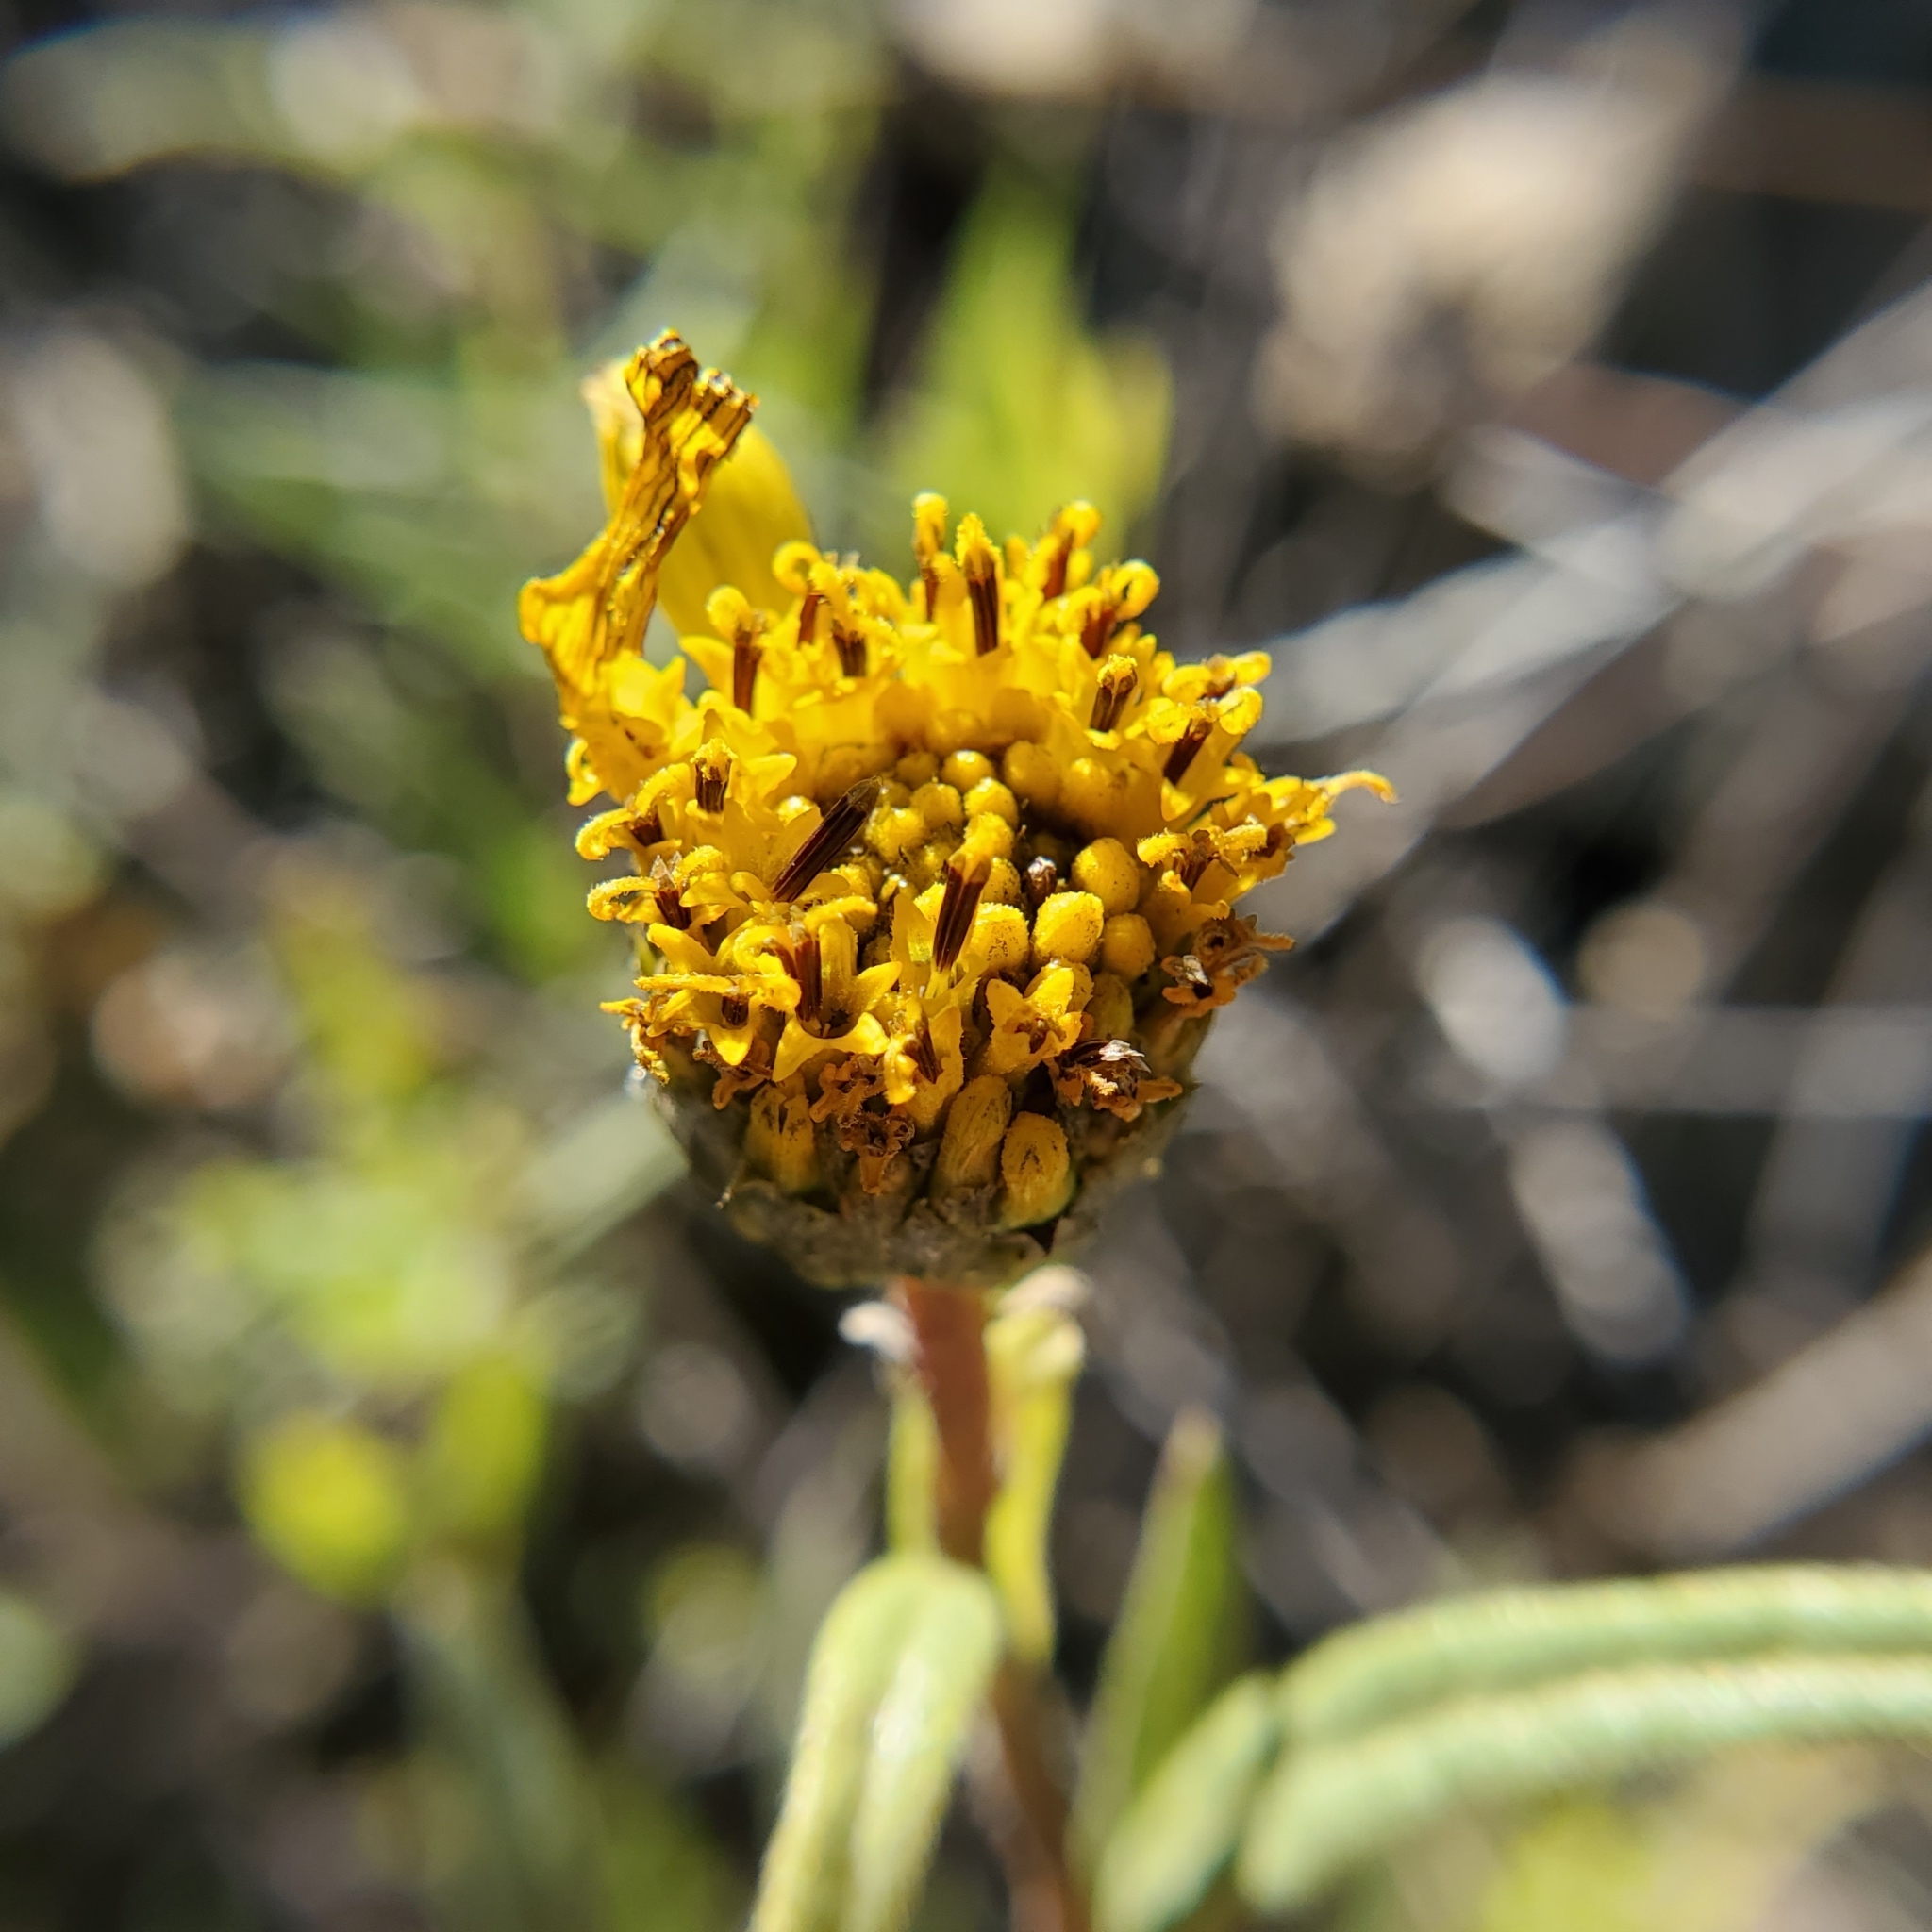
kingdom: Plantae
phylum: Tracheophyta
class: Magnoliopsida
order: Asterales
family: Asteraceae
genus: Helianthus
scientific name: Helianthus gracilentus
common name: Slender sunflower
